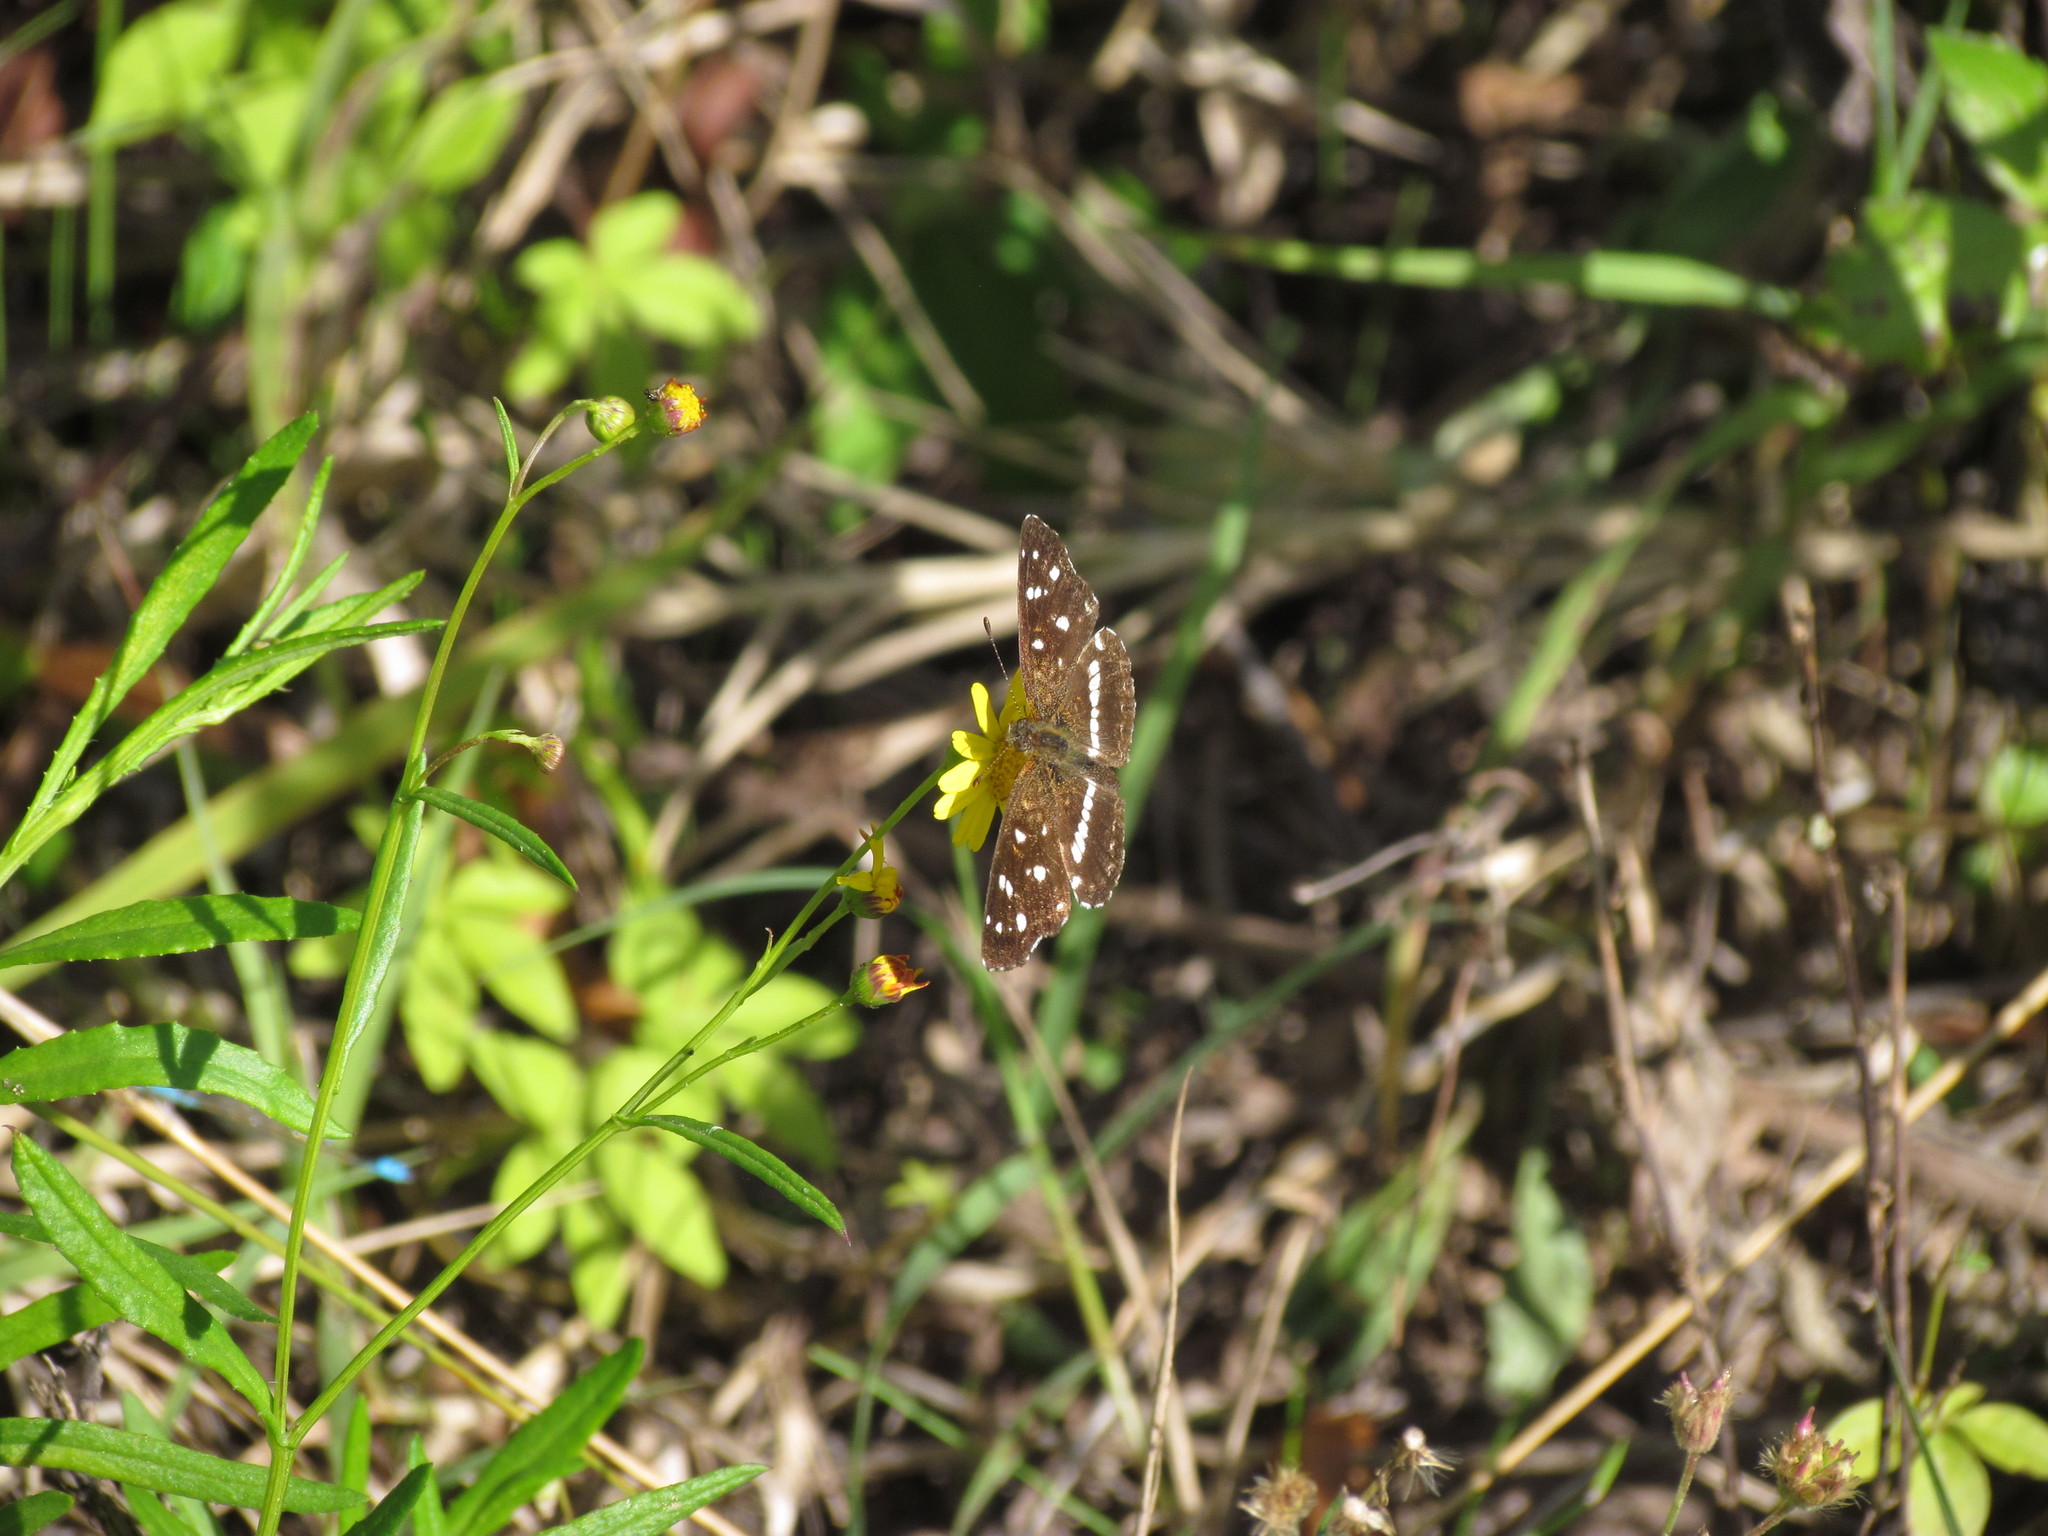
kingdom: Animalia
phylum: Arthropoda
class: Insecta
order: Lepidoptera
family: Nymphalidae
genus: Ortilia
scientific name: Ortilia ithra
